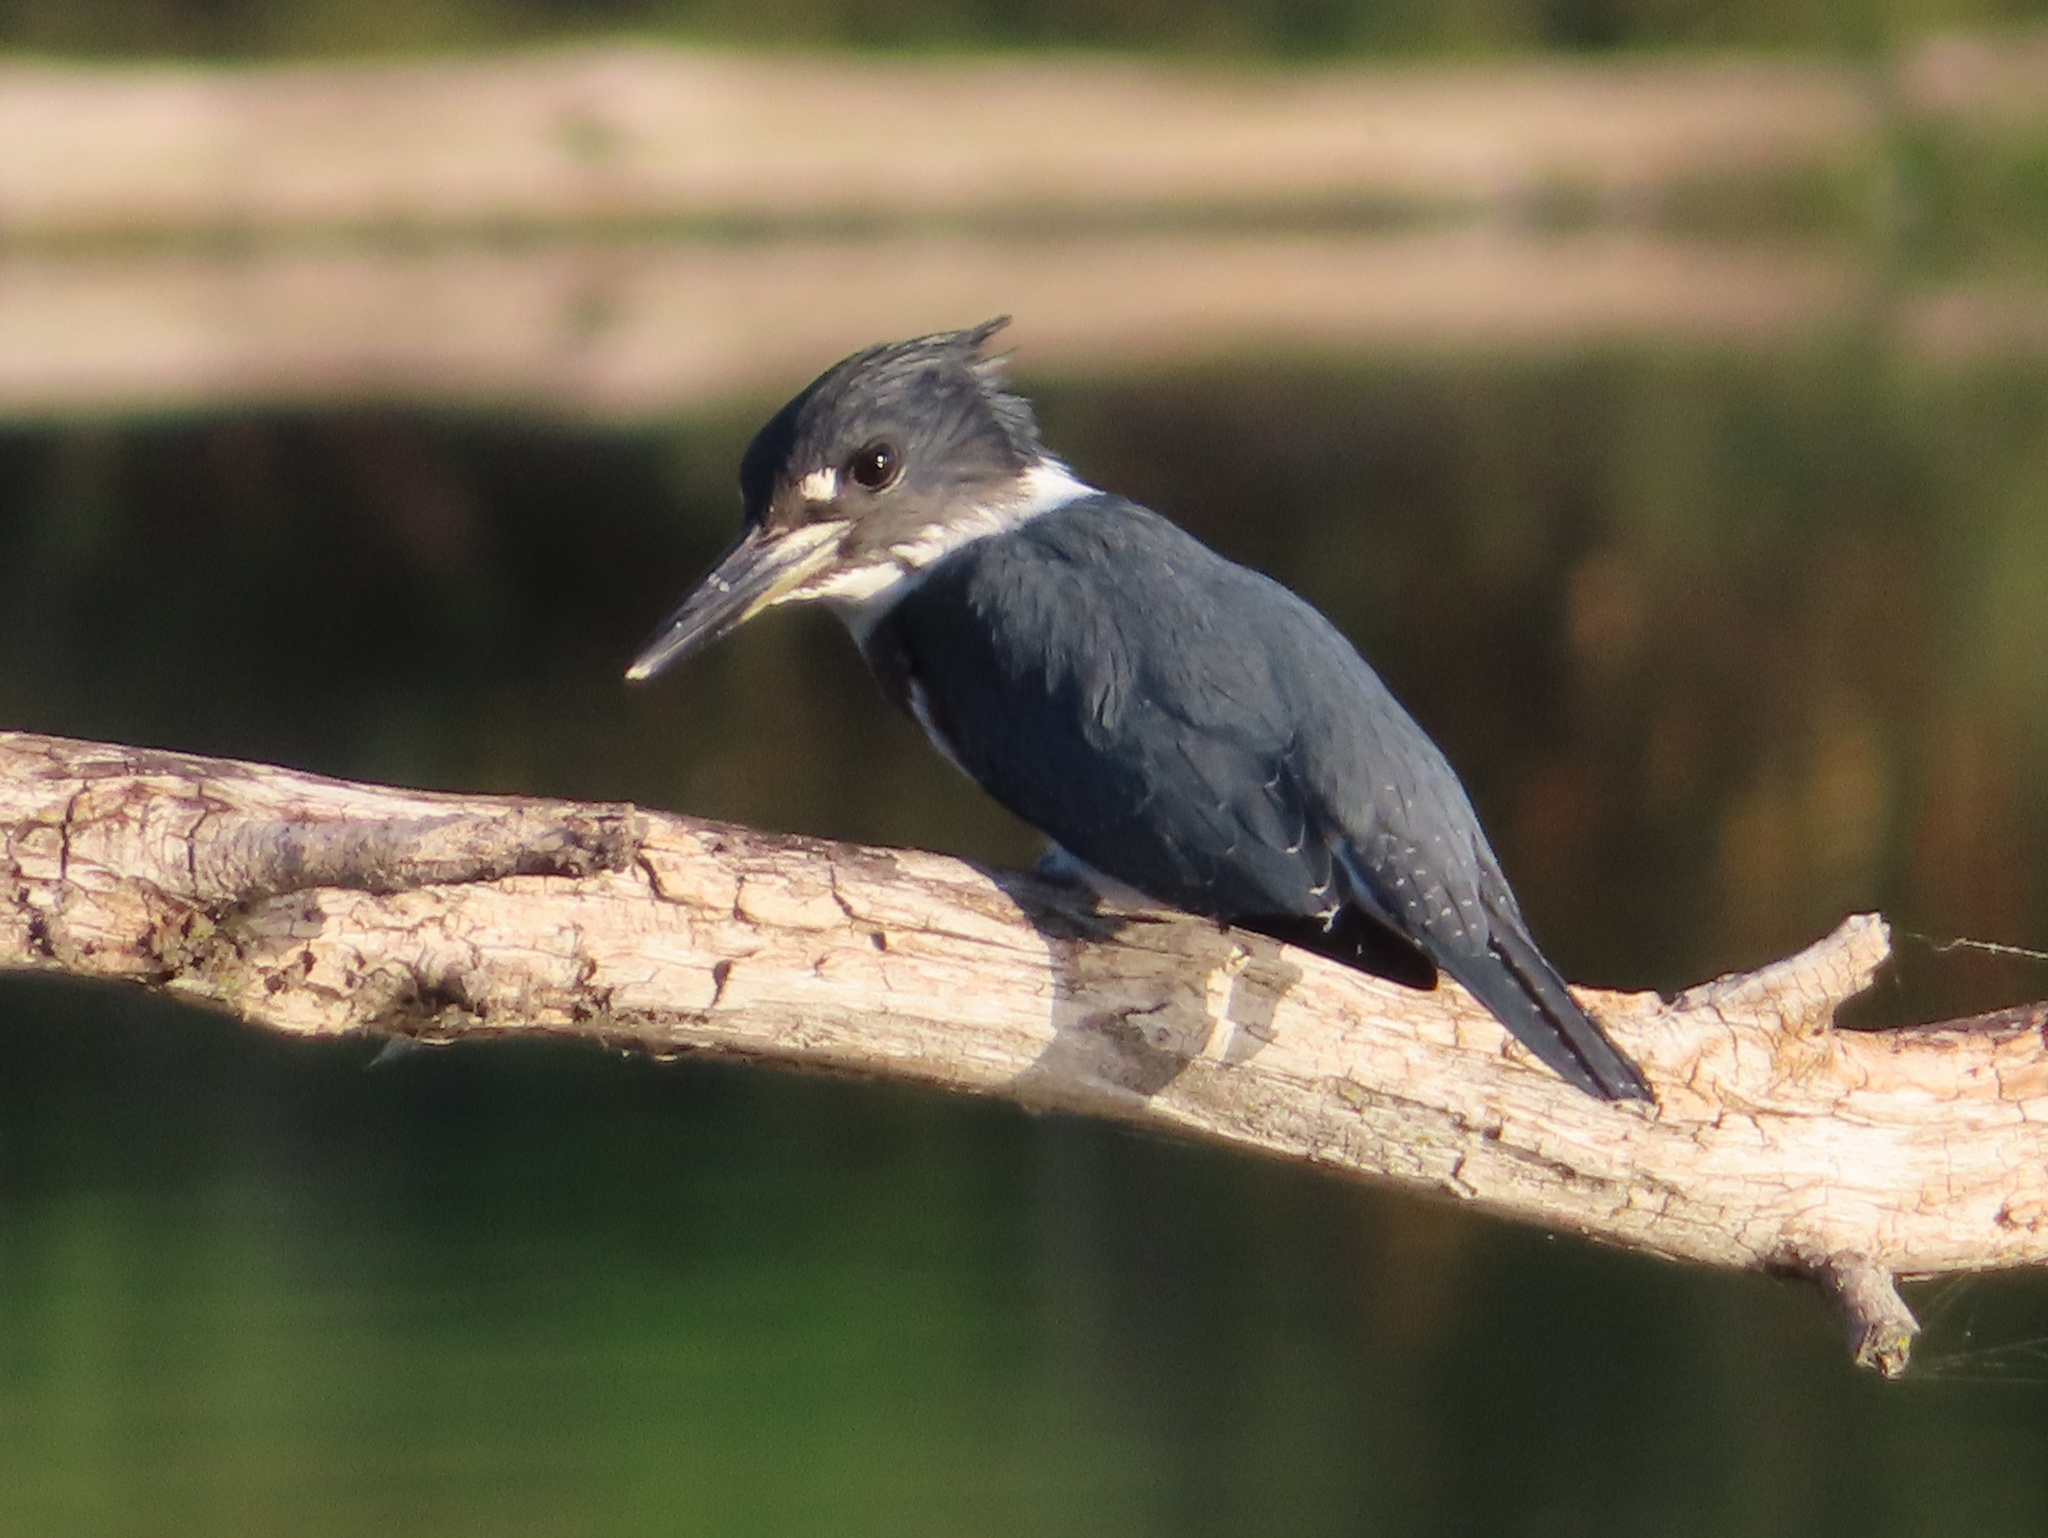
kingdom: Animalia
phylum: Chordata
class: Aves
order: Coraciiformes
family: Alcedinidae
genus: Megaceryle
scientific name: Megaceryle alcyon
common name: Belted kingfisher
